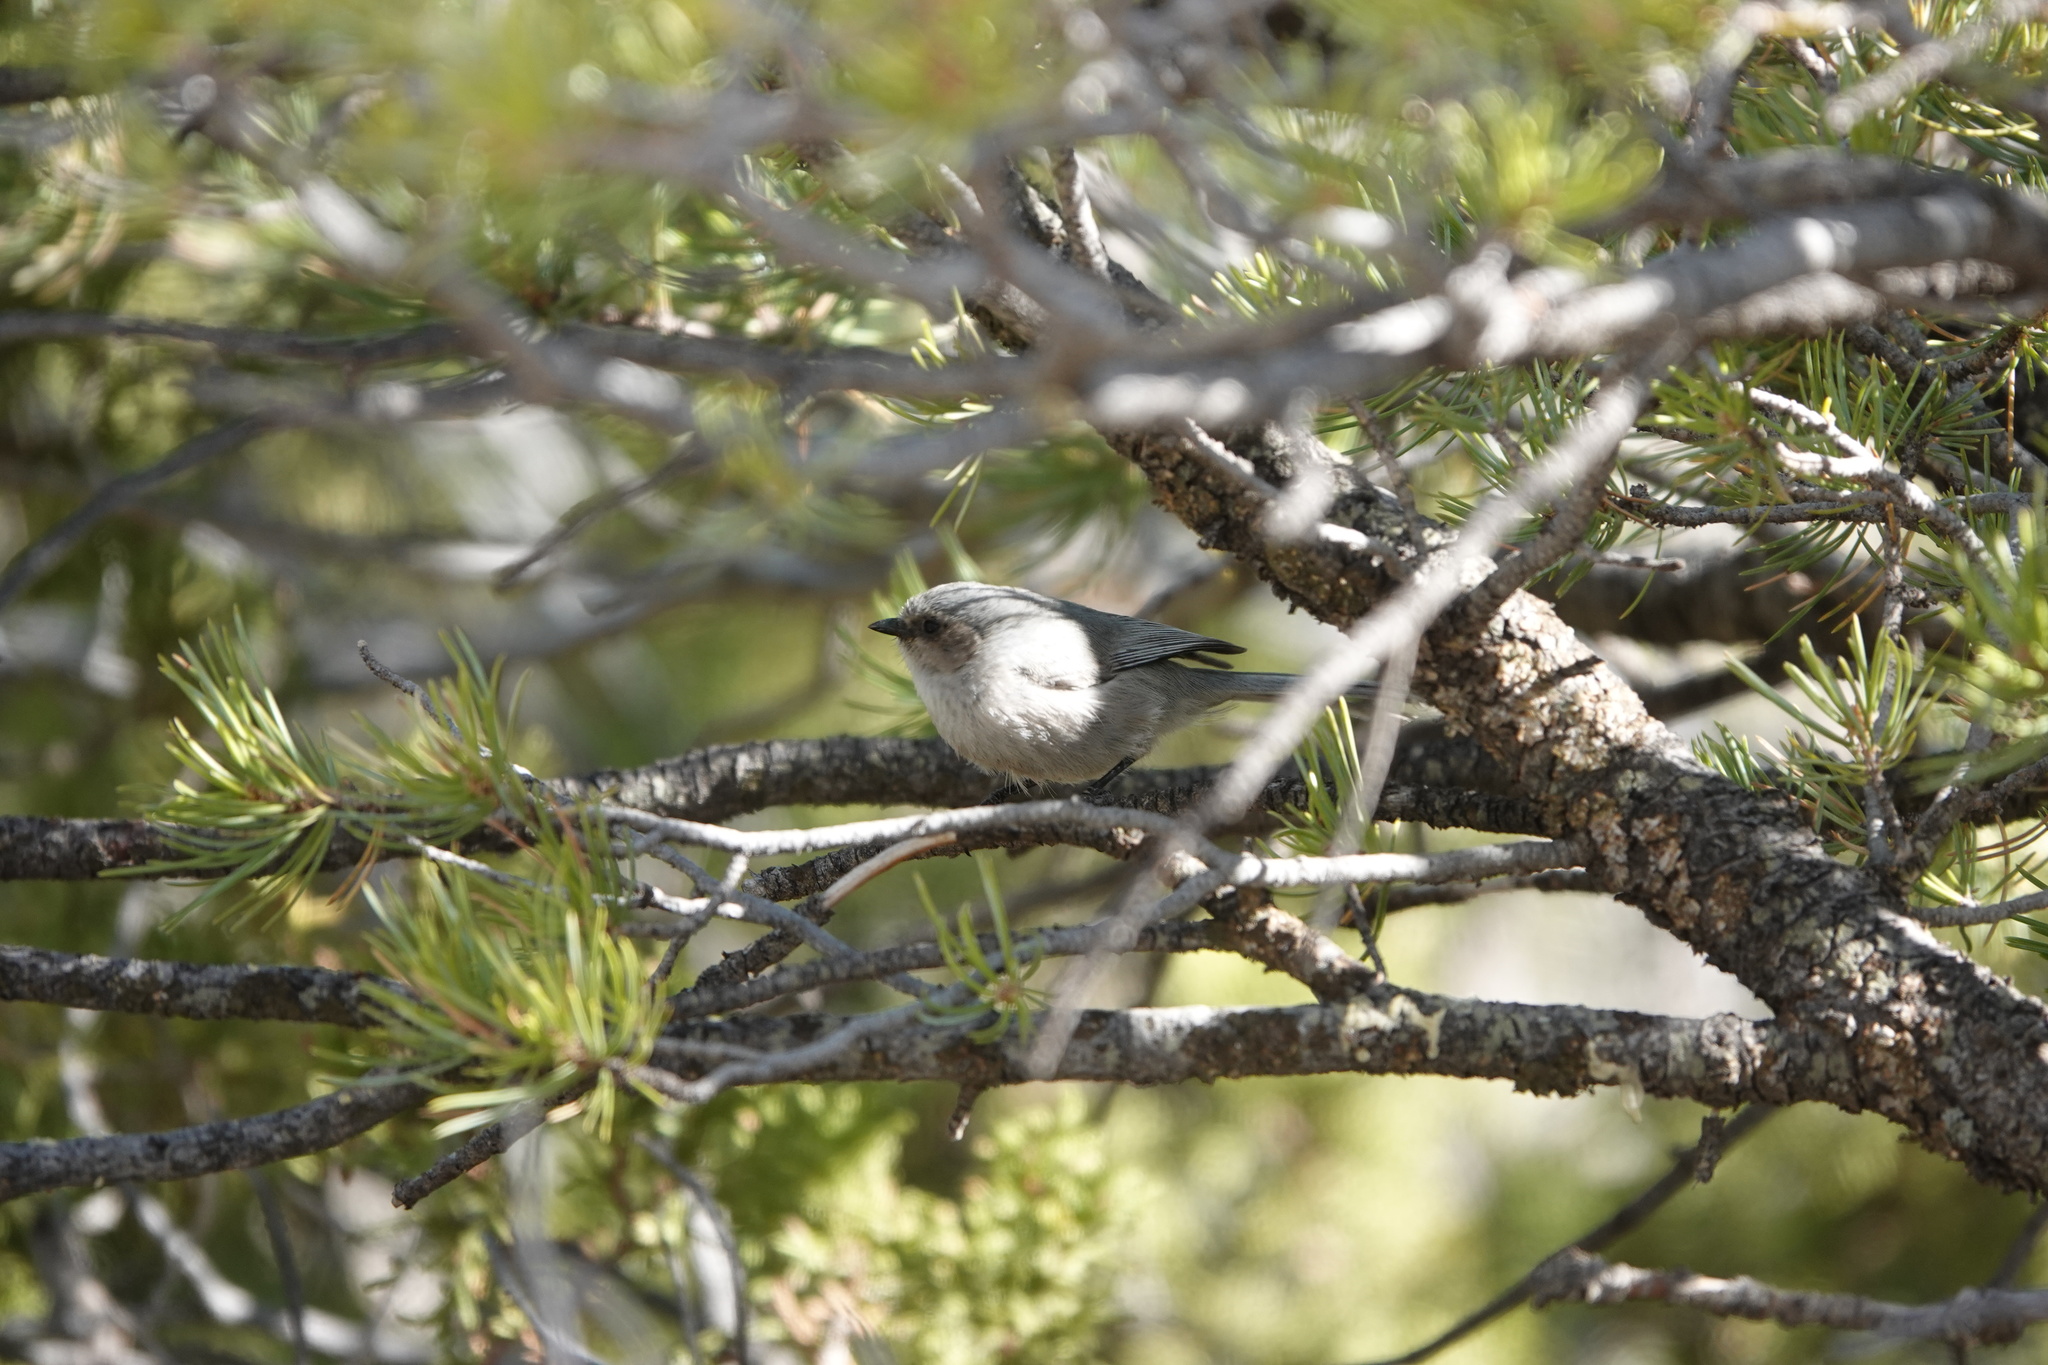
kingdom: Animalia
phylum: Chordata
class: Aves
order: Passeriformes
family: Aegithalidae
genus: Psaltriparus
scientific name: Psaltriparus minimus
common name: American bushtit
